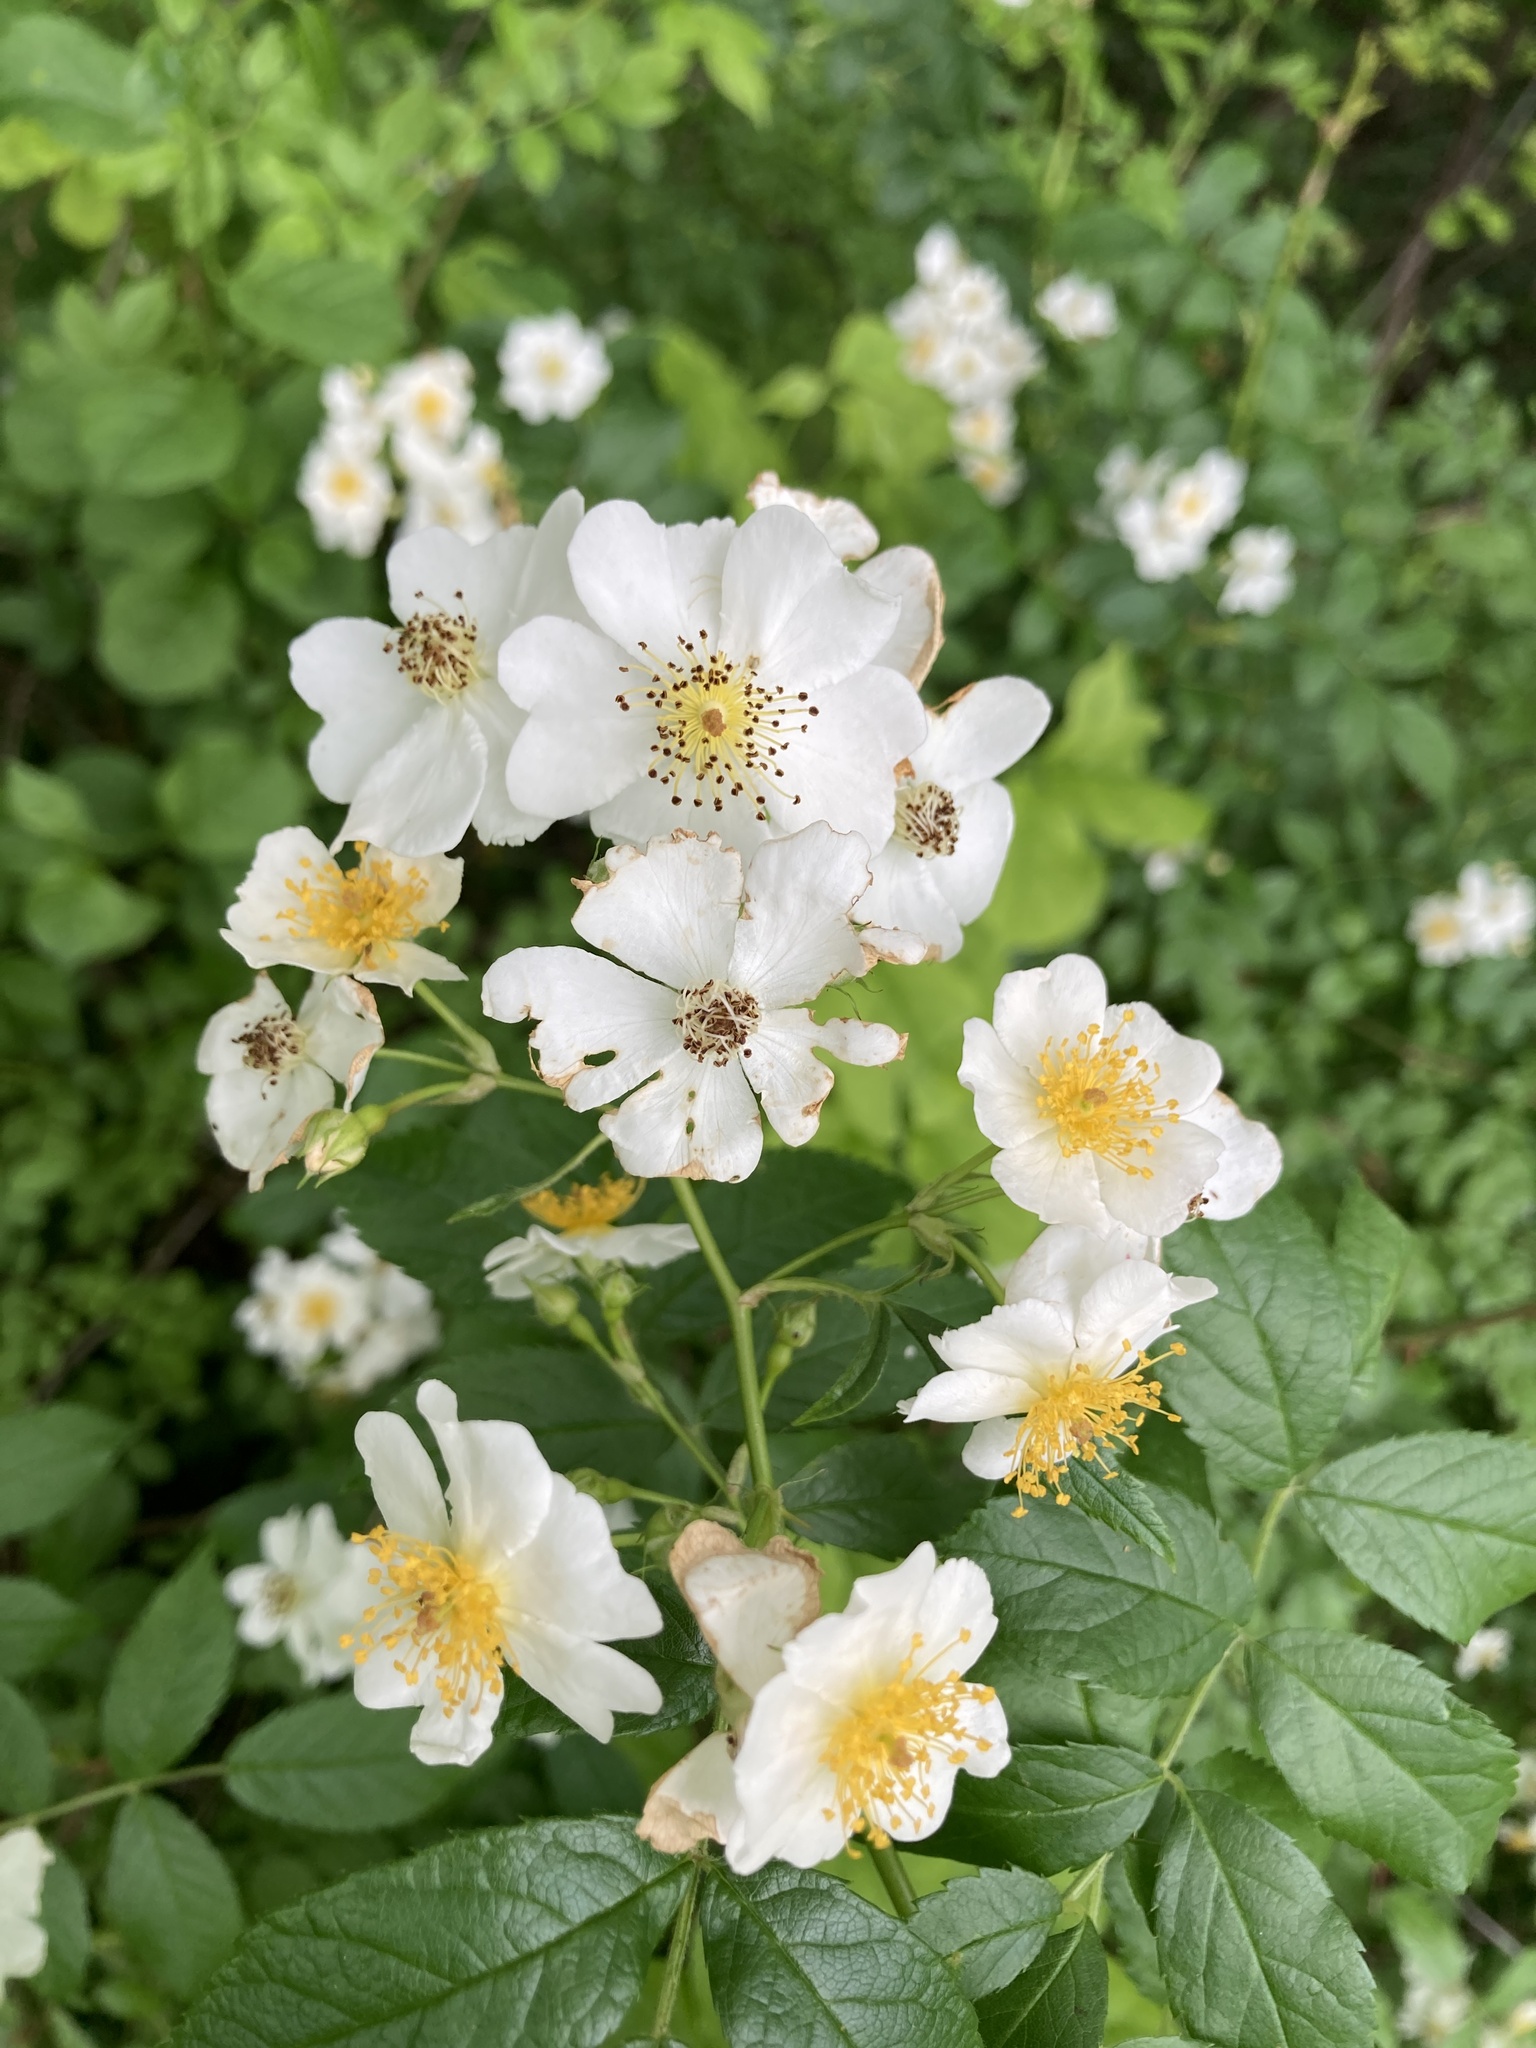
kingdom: Plantae
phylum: Tracheophyta
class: Magnoliopsida
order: Rosales
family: Rosaceae
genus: Rosa
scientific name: Rosa multiflora
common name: Multiflora rose
